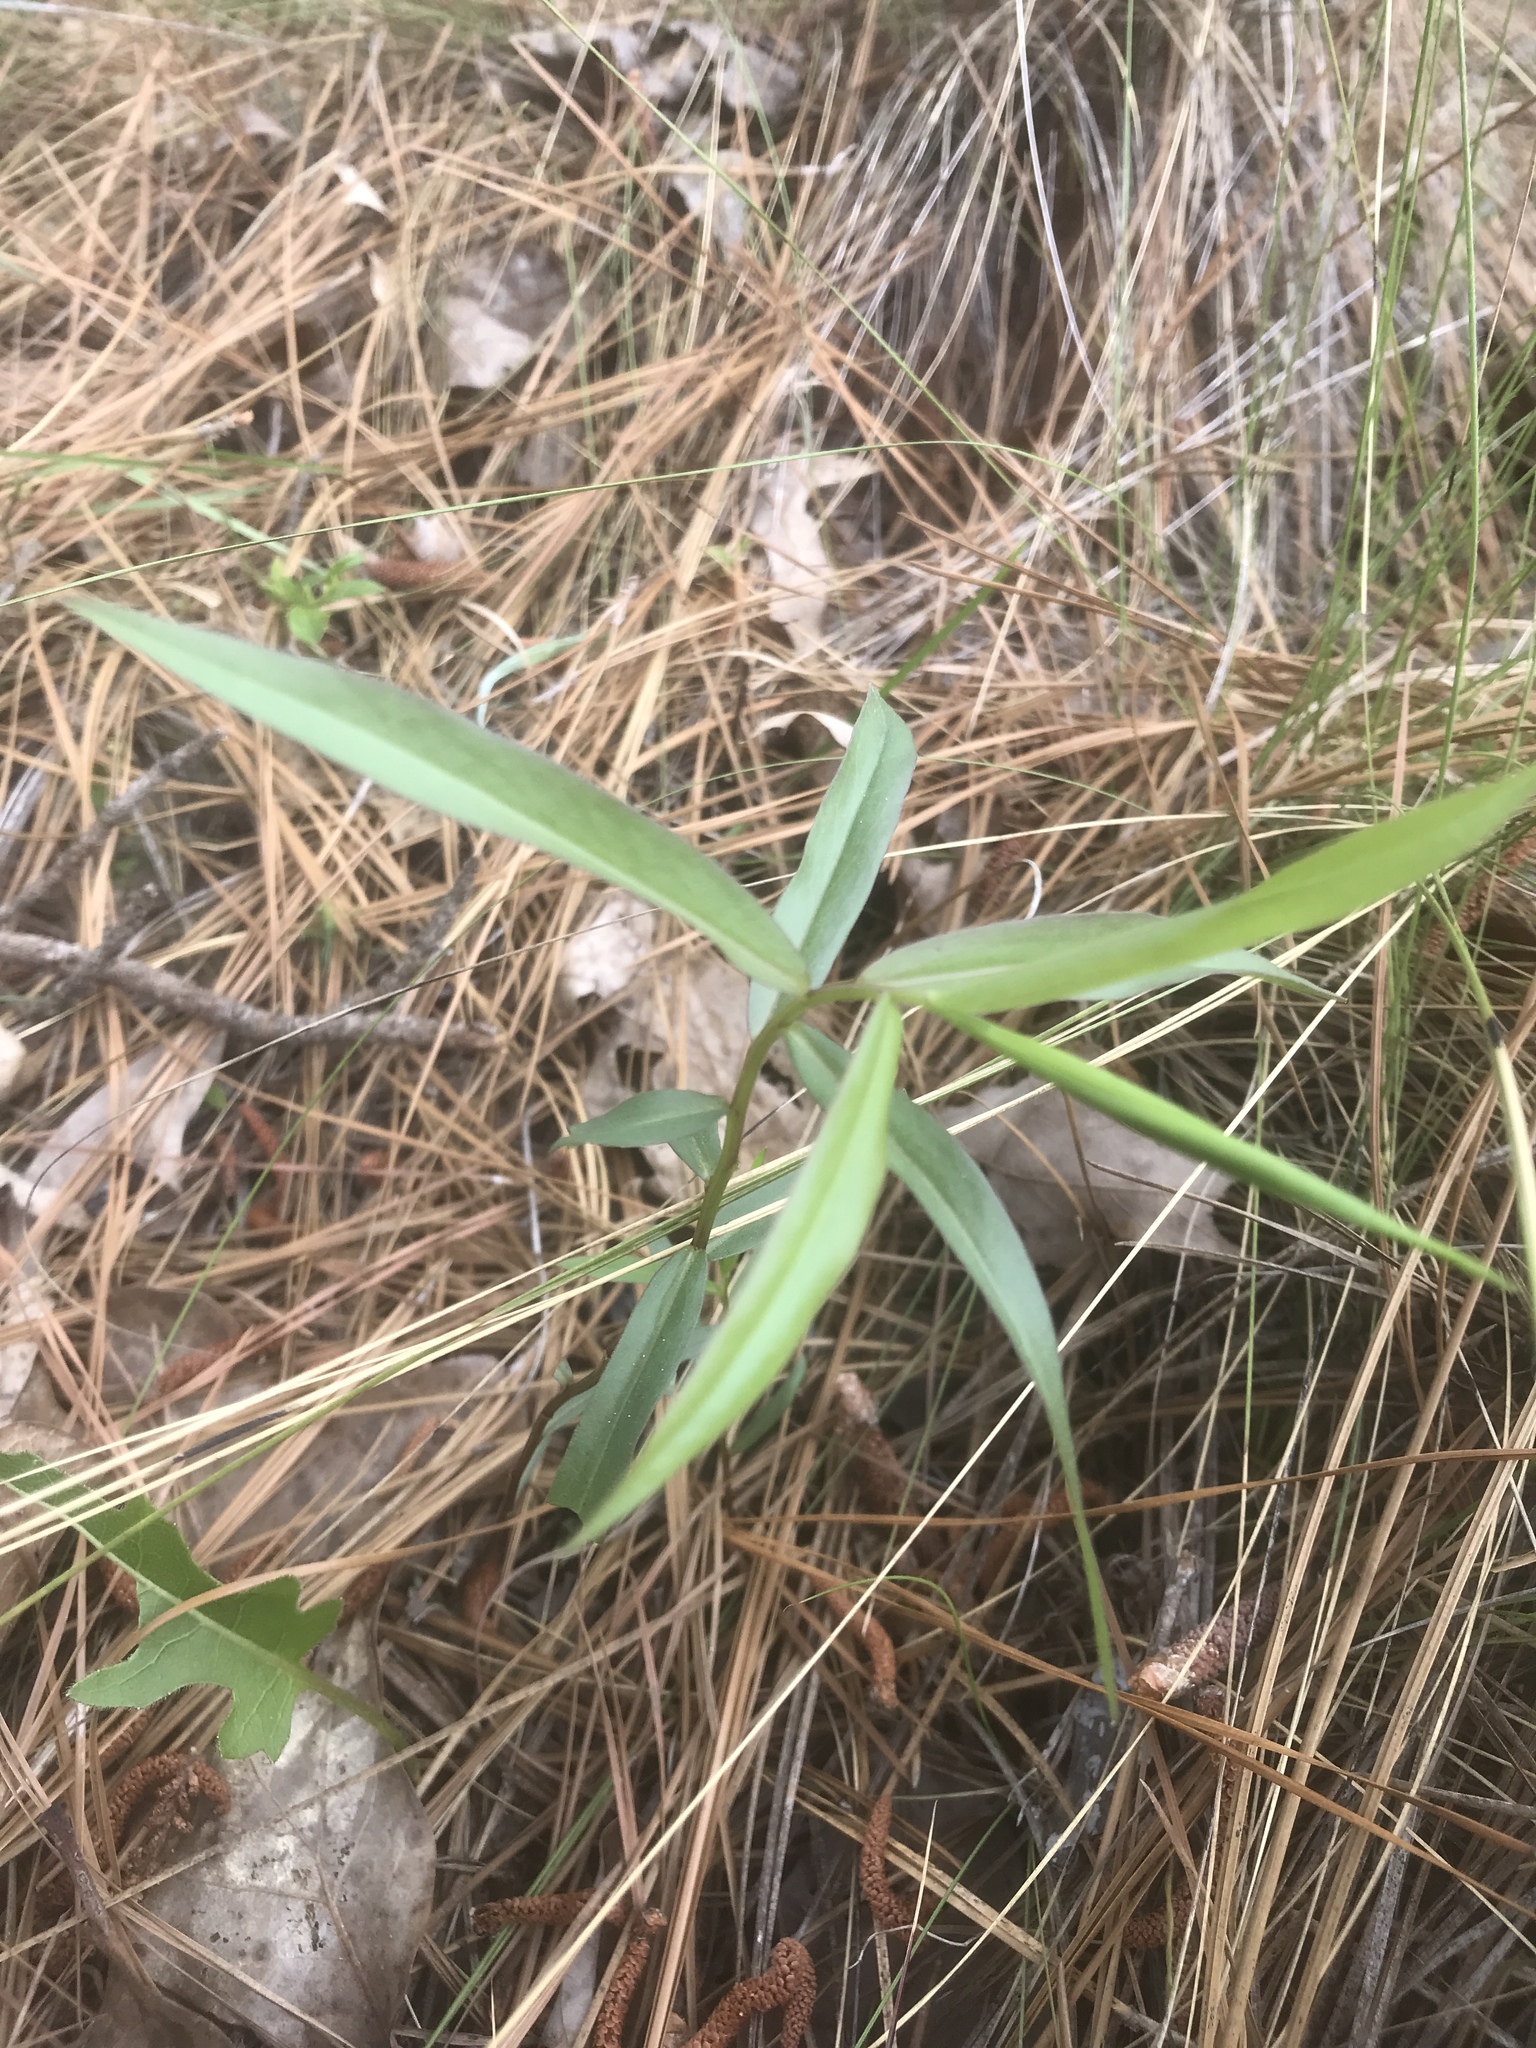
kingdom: Plantae
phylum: Tracheophyta
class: Magnoliopsida
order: Asterales
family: Asteraceae
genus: Solidago
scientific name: Solidago odora
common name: Anise-scented goldenrod
